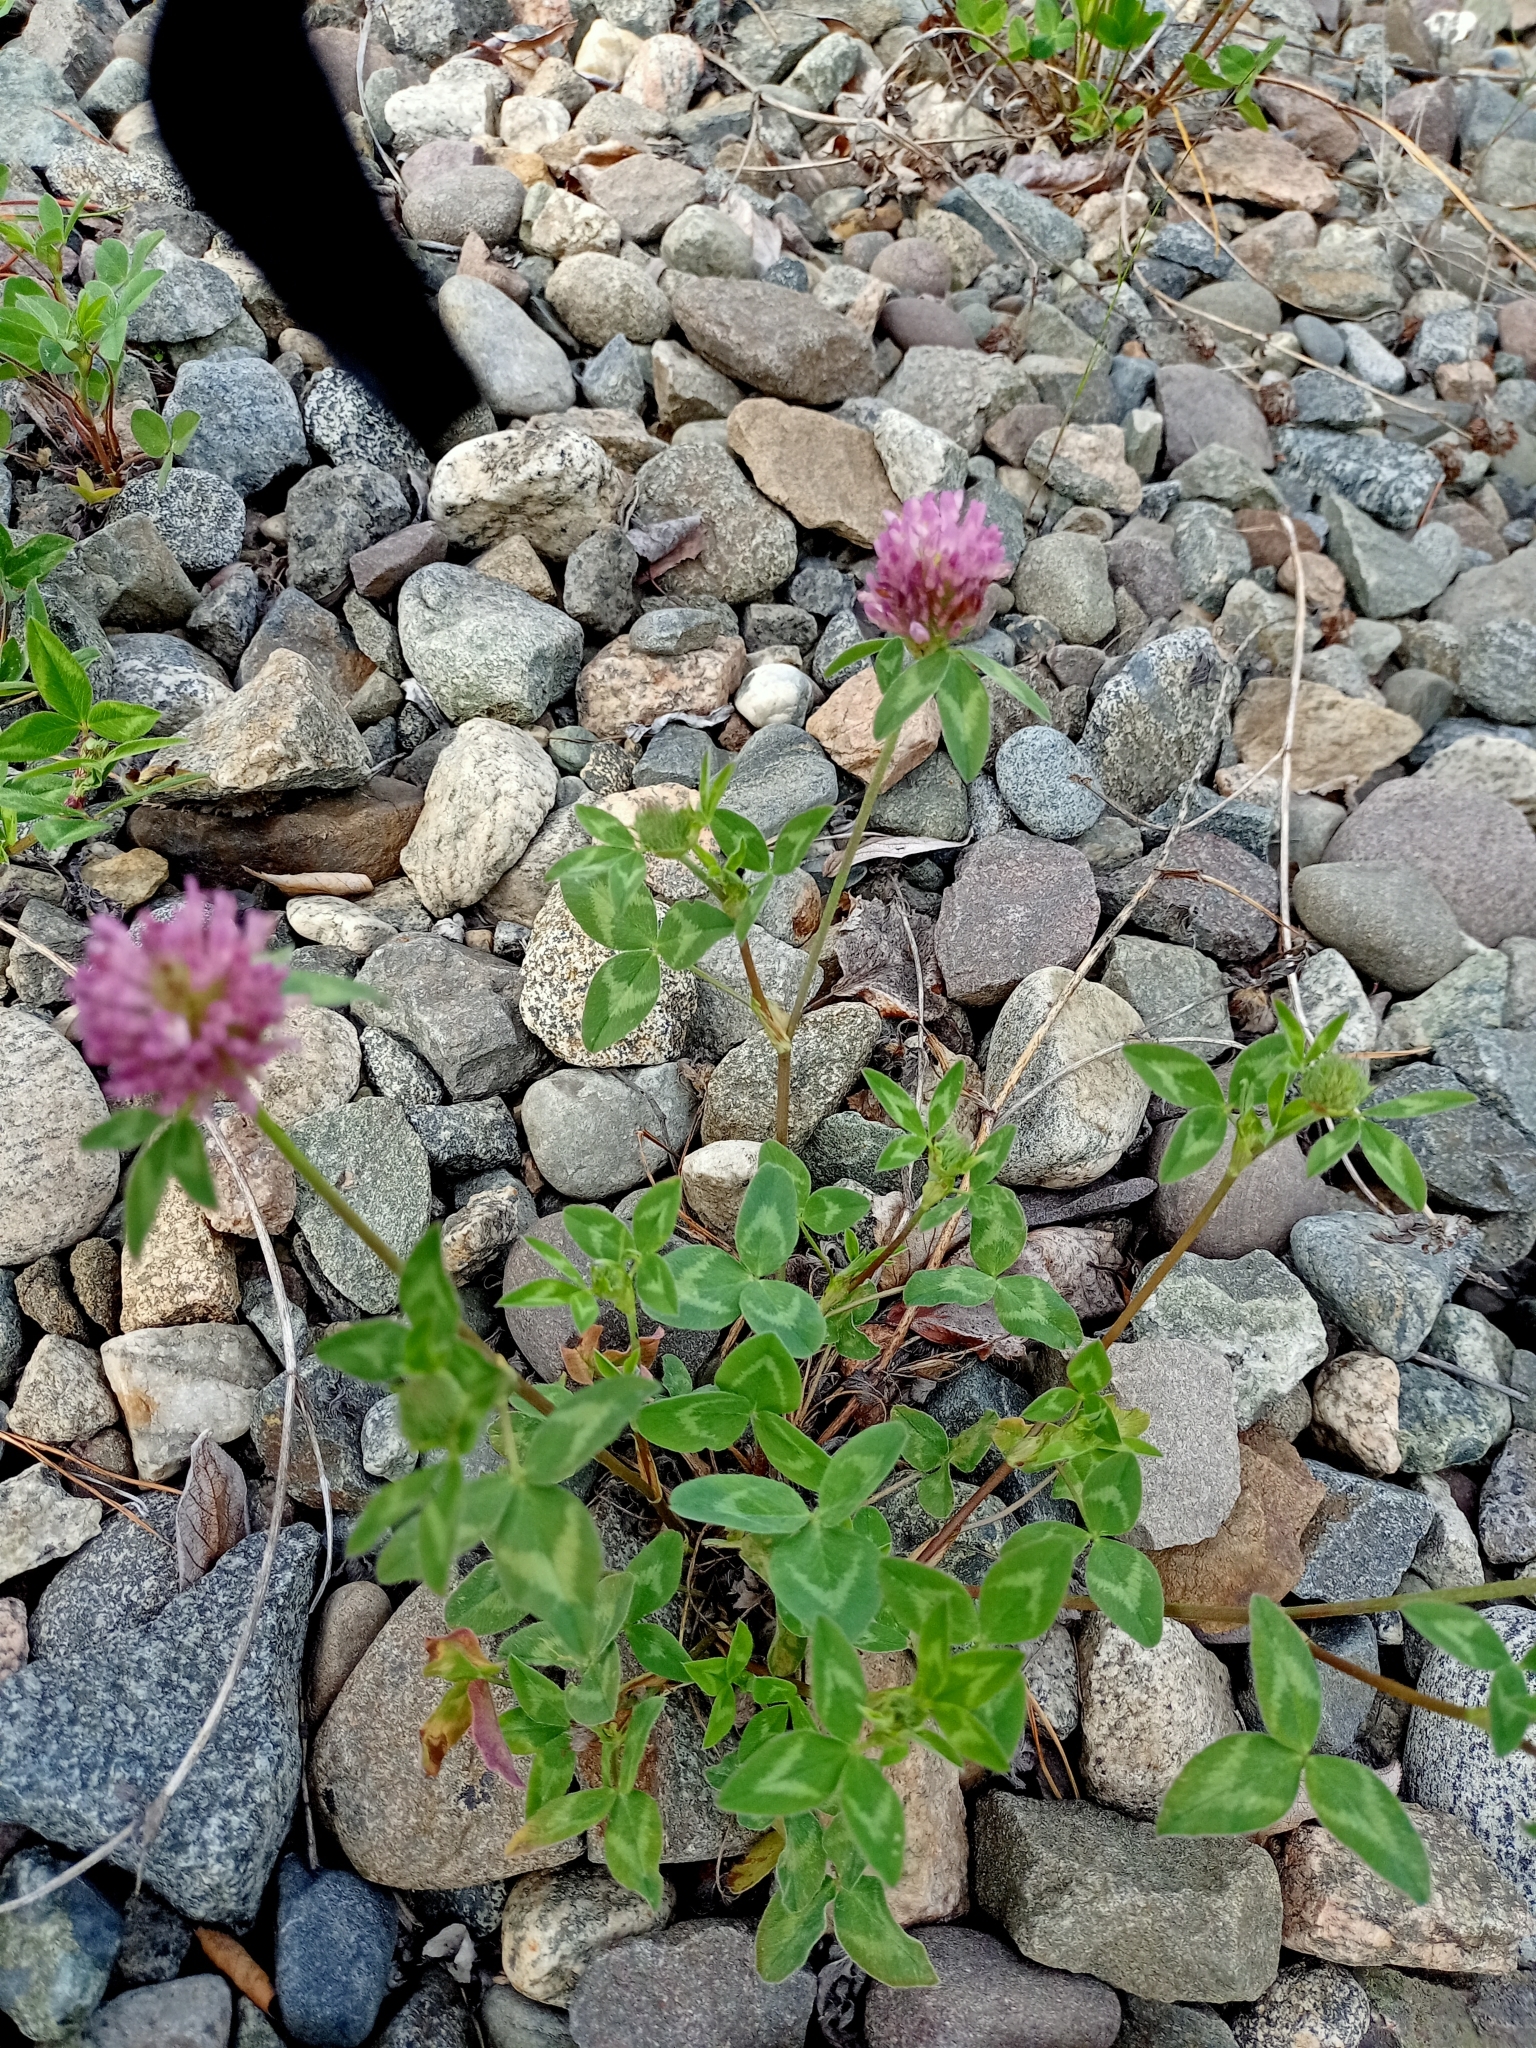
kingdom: Plantae
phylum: Tracheophyta
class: Magnoliopsida
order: Fabales
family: Fabaceae
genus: Trifolium
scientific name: Trifolium pratense
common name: Red clover
